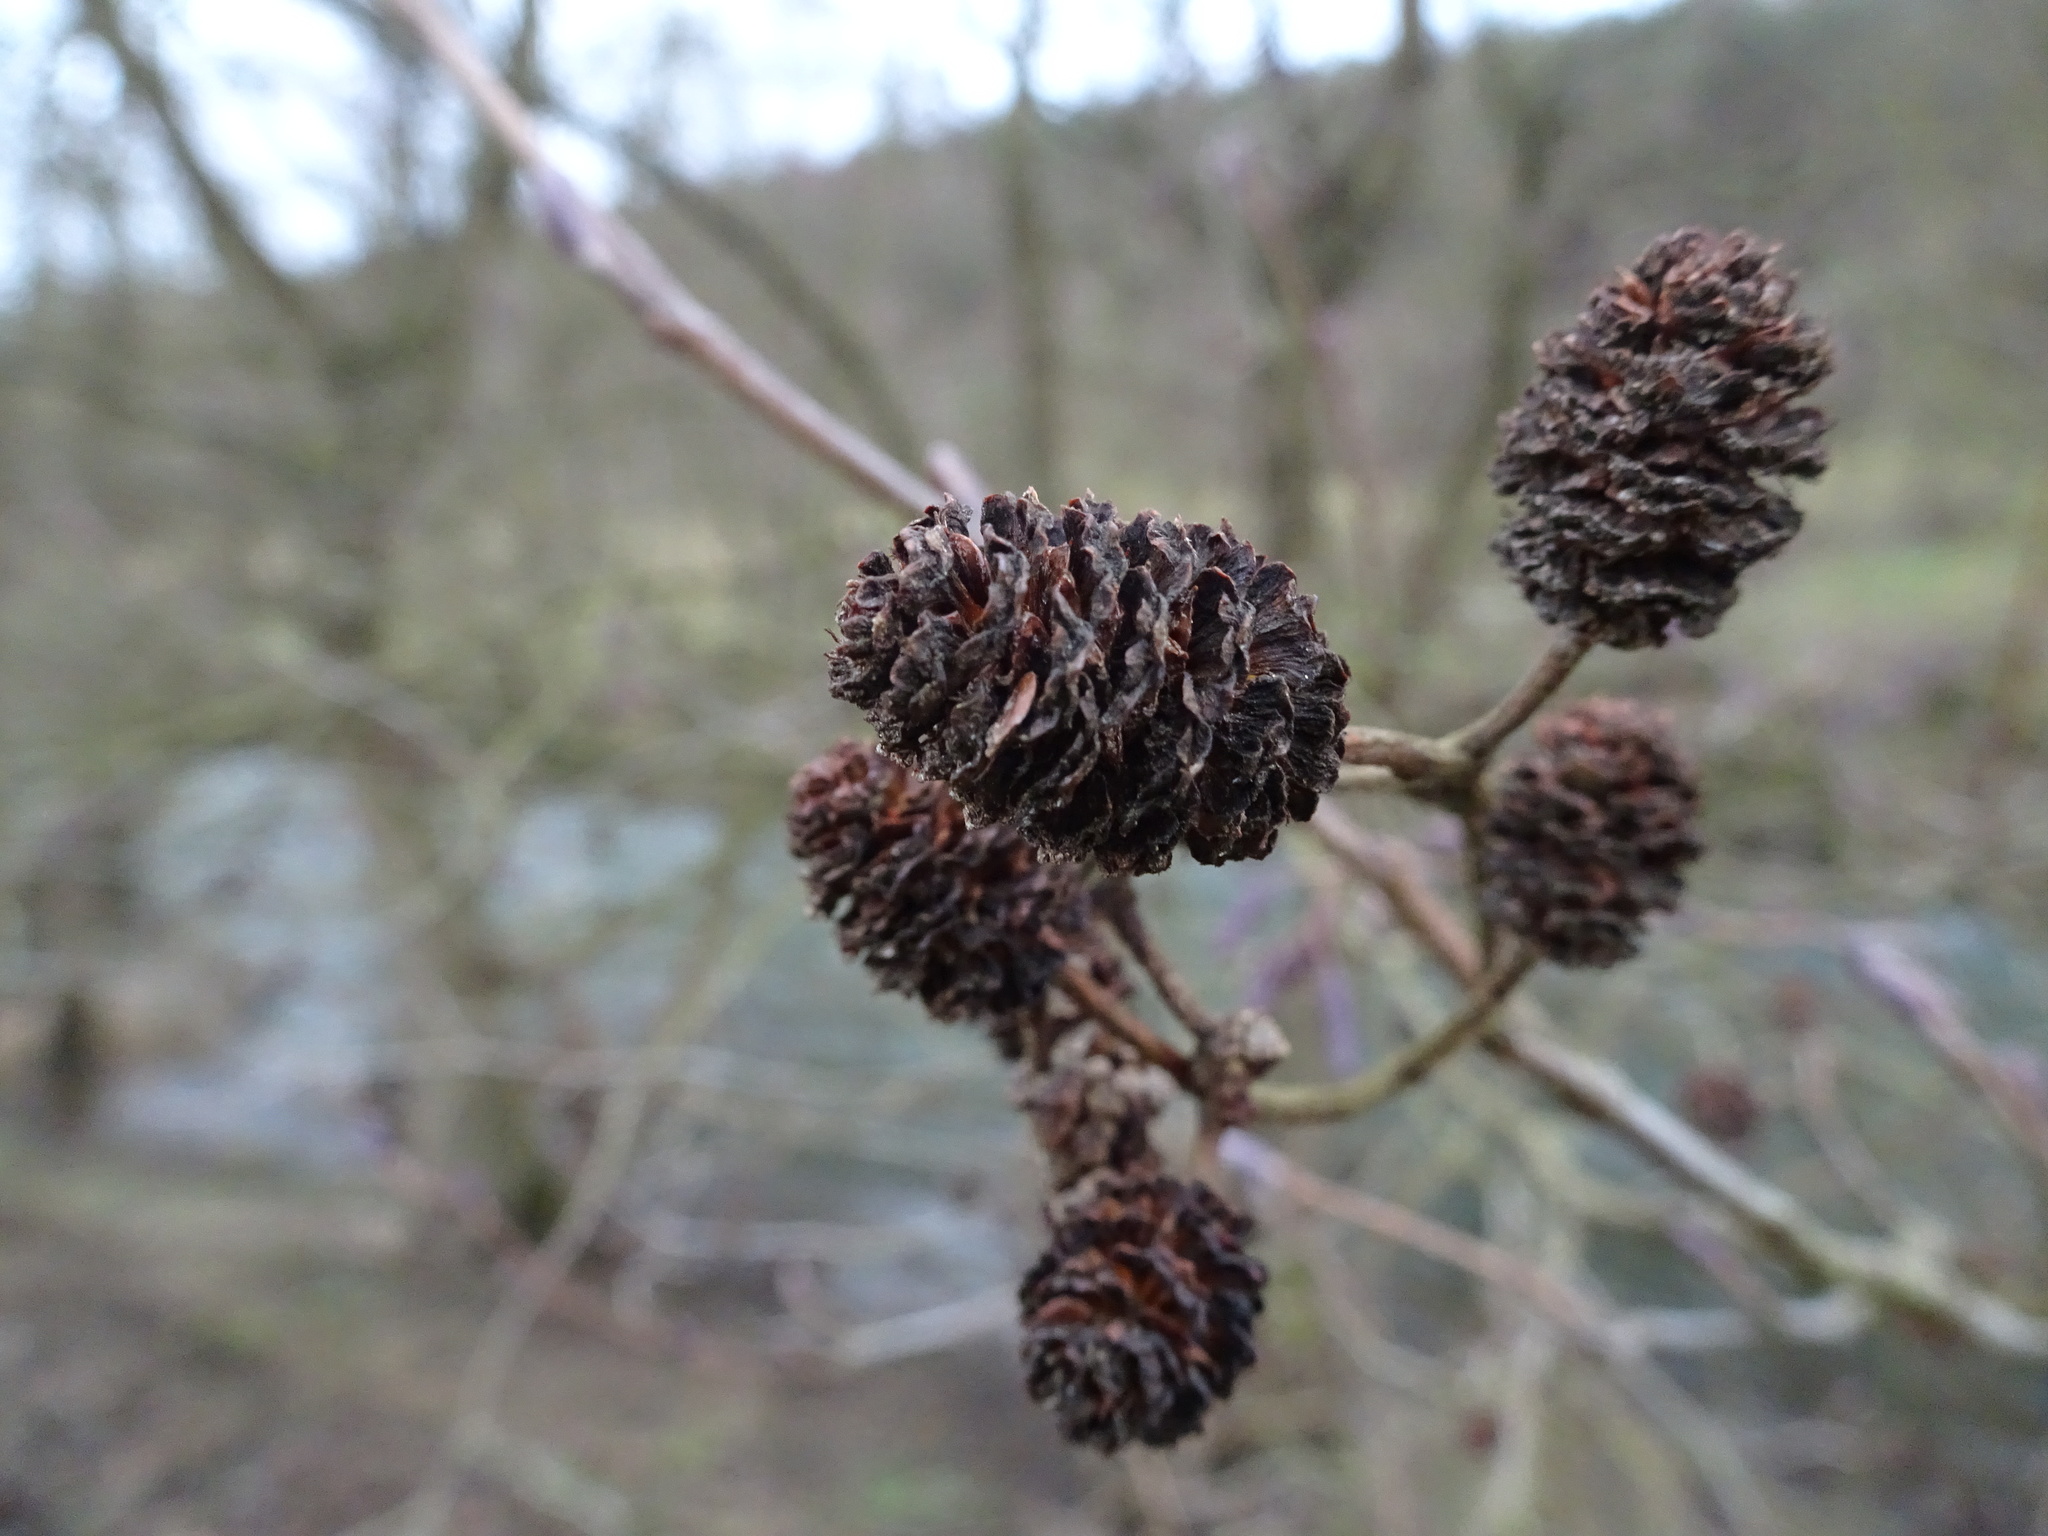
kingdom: Plantae
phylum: Tracheophyta
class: Magnoliopsida
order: Fagales
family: Betulaceae
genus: Alnus
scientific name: Alnus glutinosa
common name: Black alder
